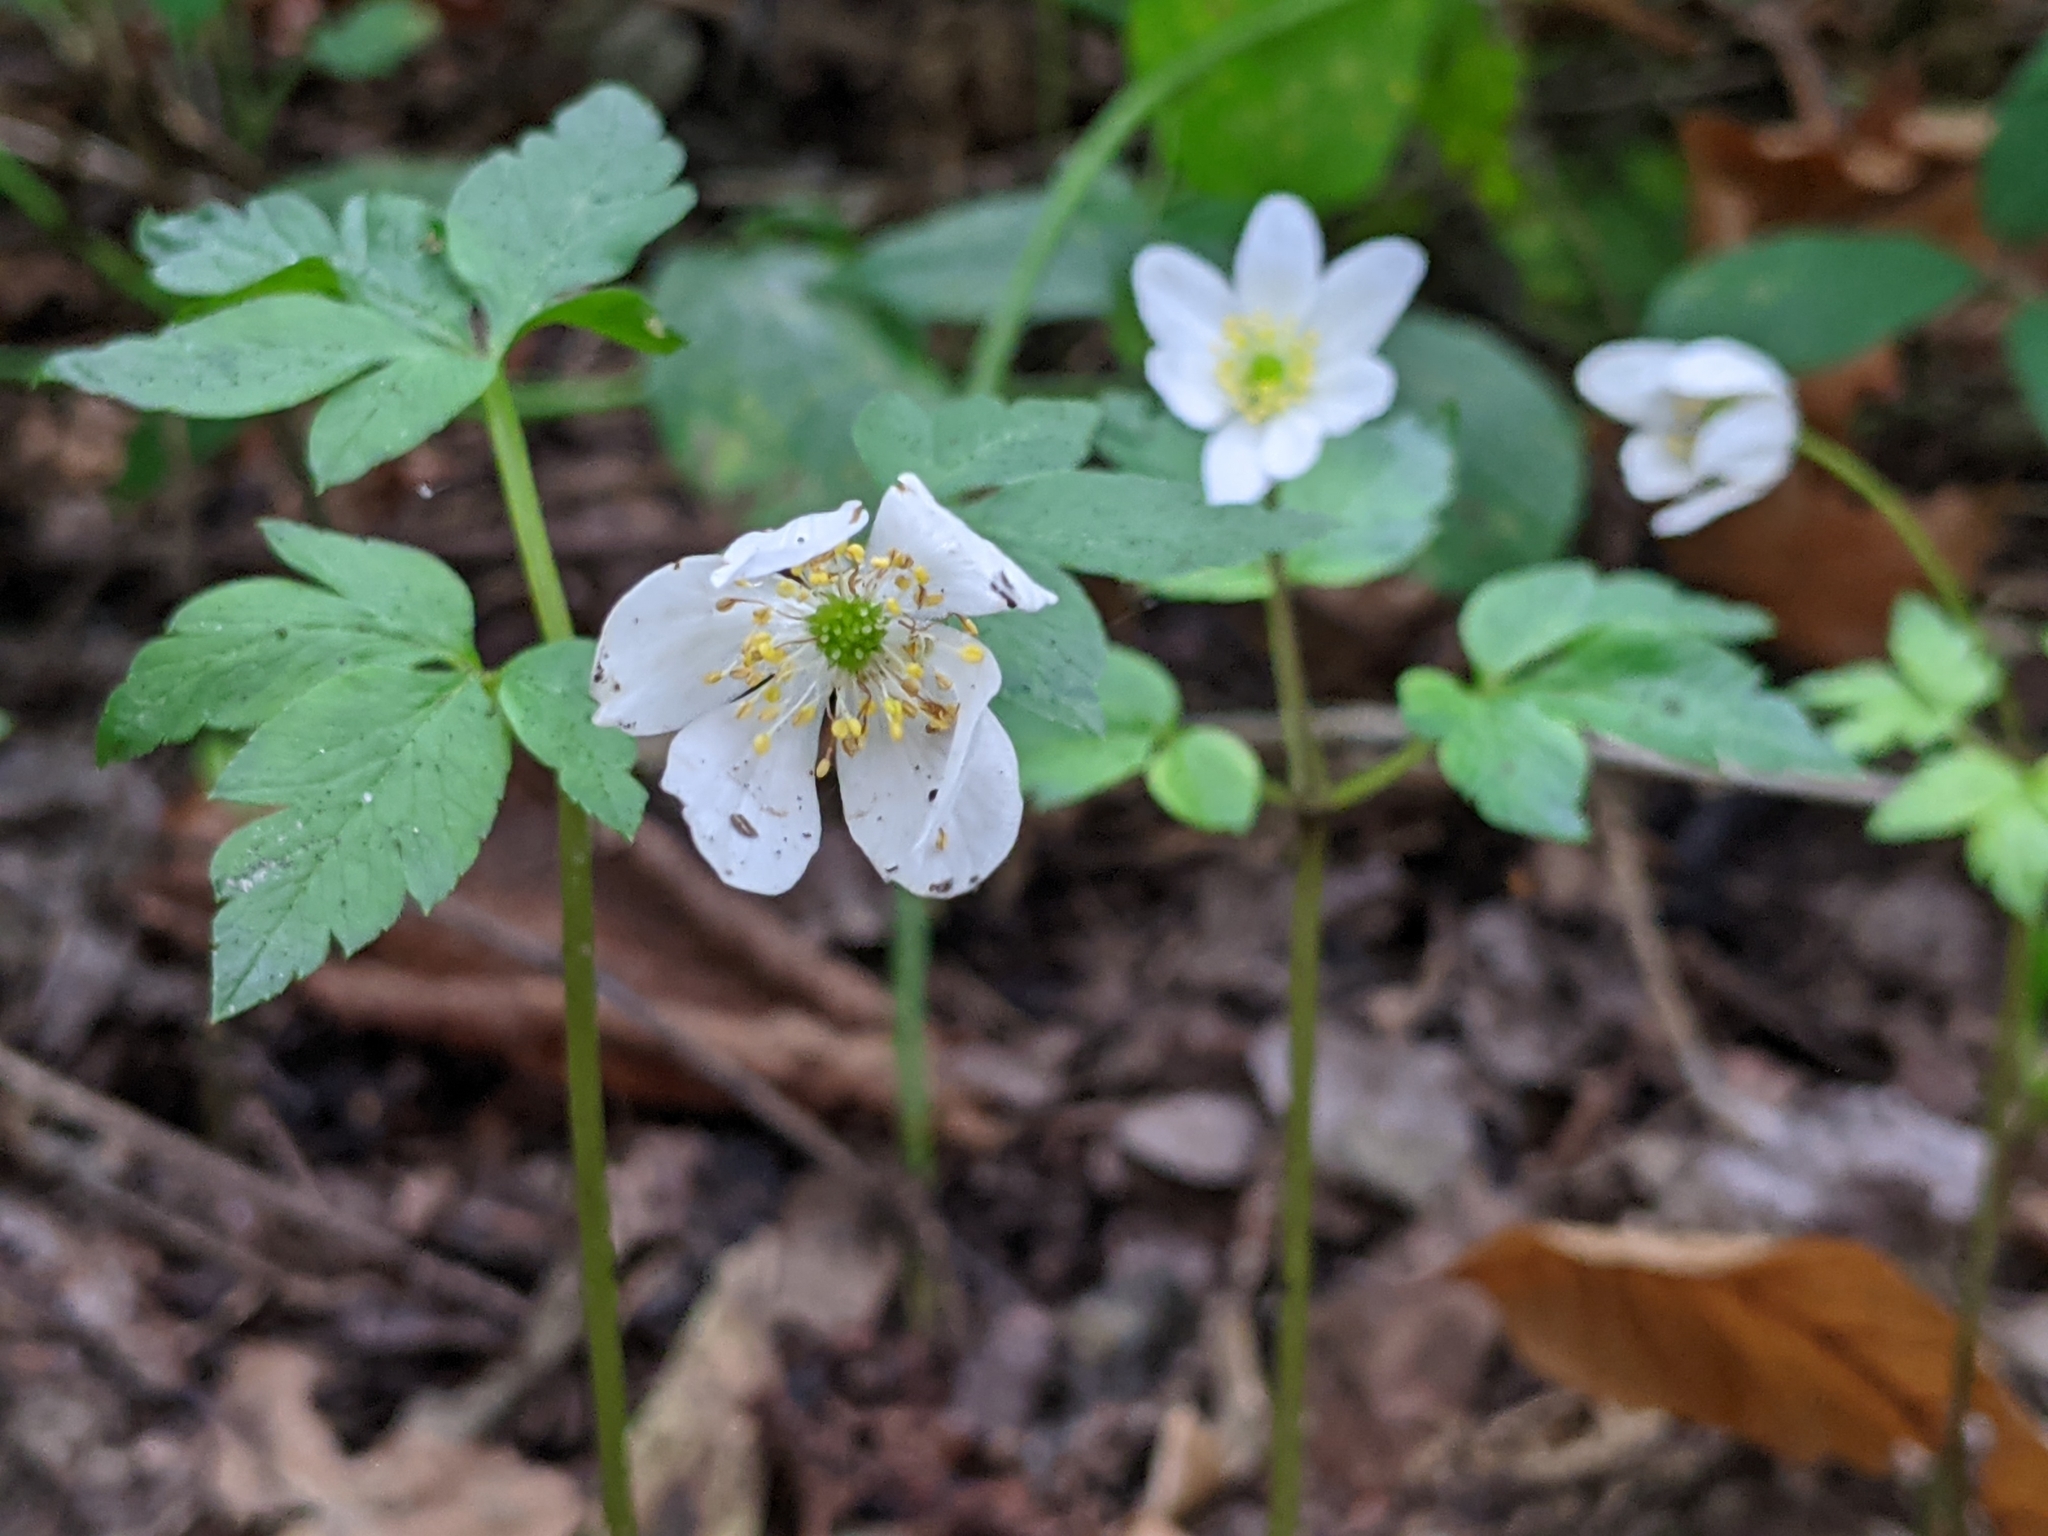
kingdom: Plantae
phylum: Tracheophyta
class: Magnoliopsida
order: Ranunculales
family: Ranunculaceae
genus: Anemone
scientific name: Anemone nemorosa
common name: Wood anemone
